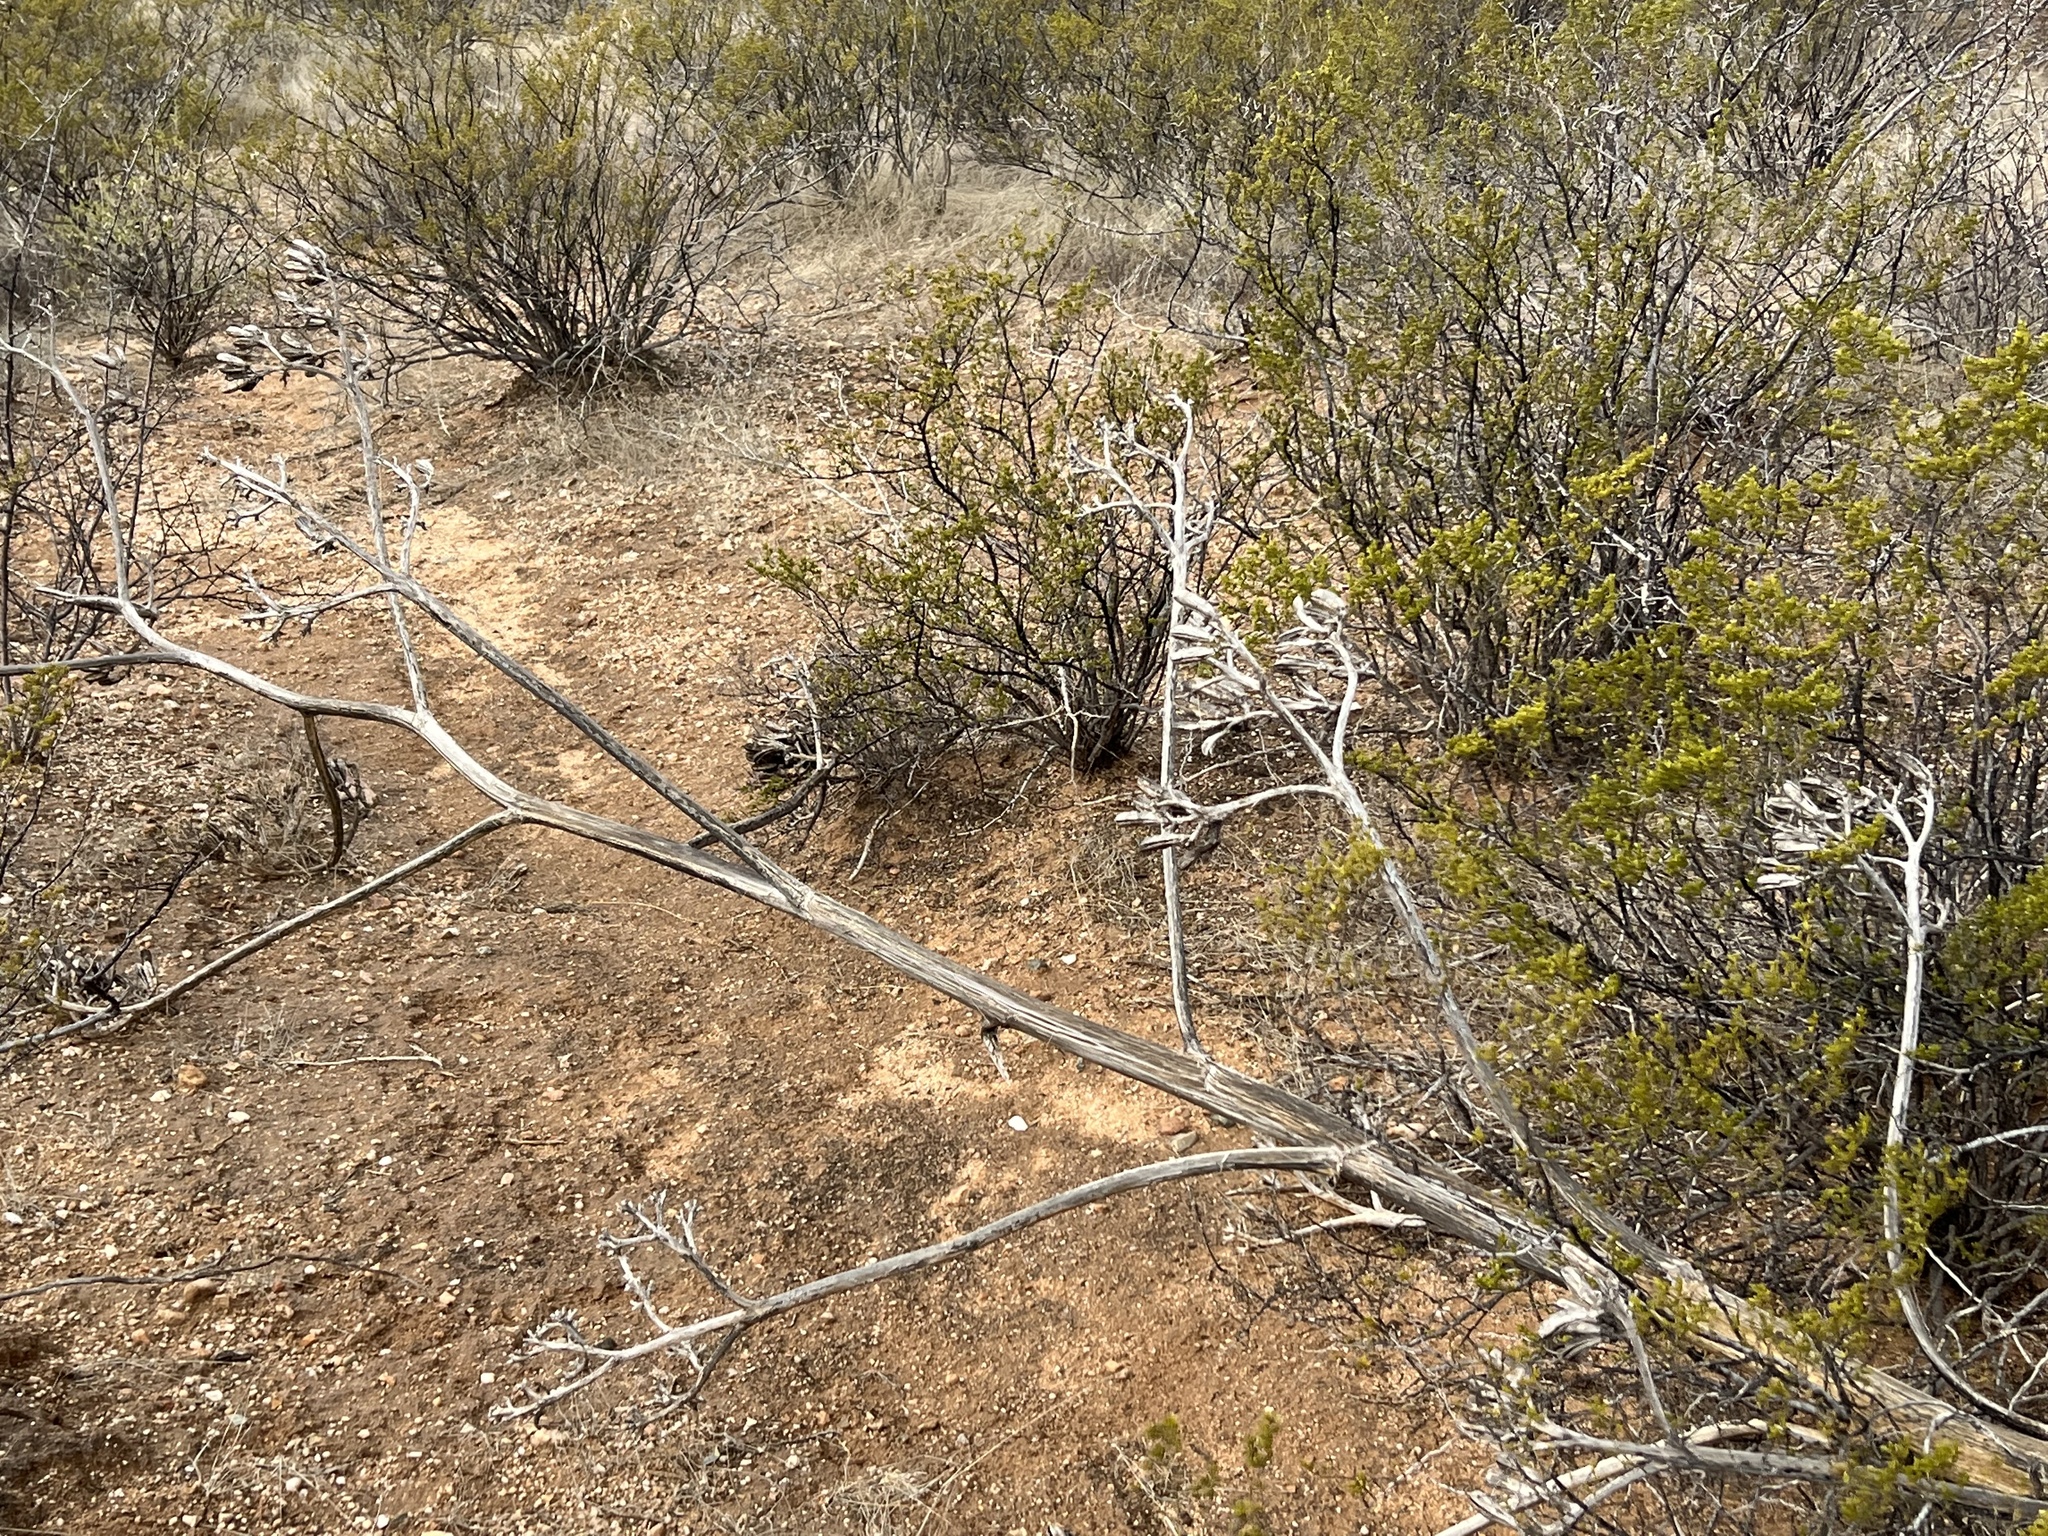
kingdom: Plantae
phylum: Tracheophyta
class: Liliopsida
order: Asparagales
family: Asparagaceae
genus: Agave
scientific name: Agave palmeri
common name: Palmer agave
